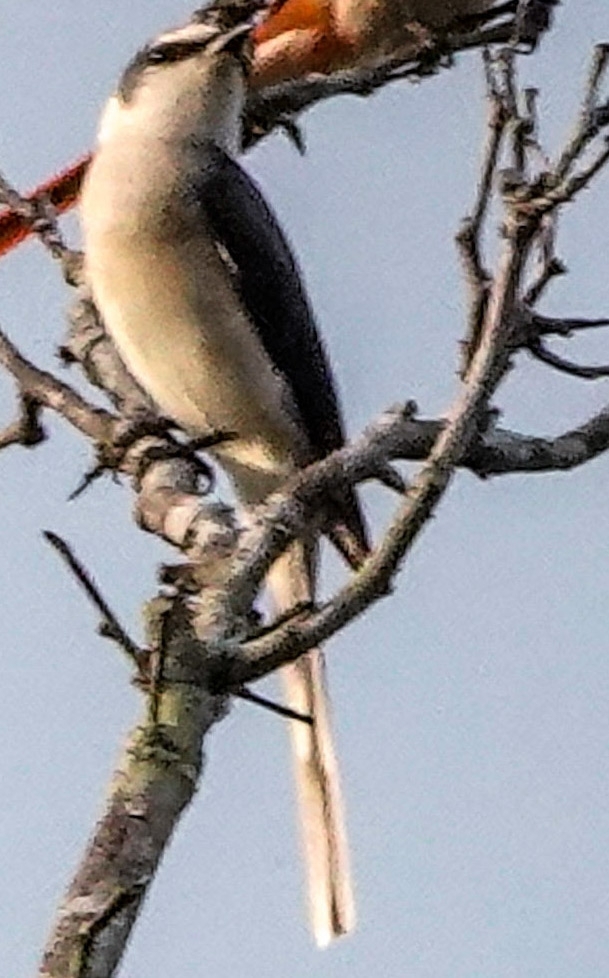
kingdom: Animalia
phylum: Chordata
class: Aves
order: Passeriformes
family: Campephagidae
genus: Pericrocotus
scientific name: Pericrocotus cantonensis
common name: Swinhoe's minivet
